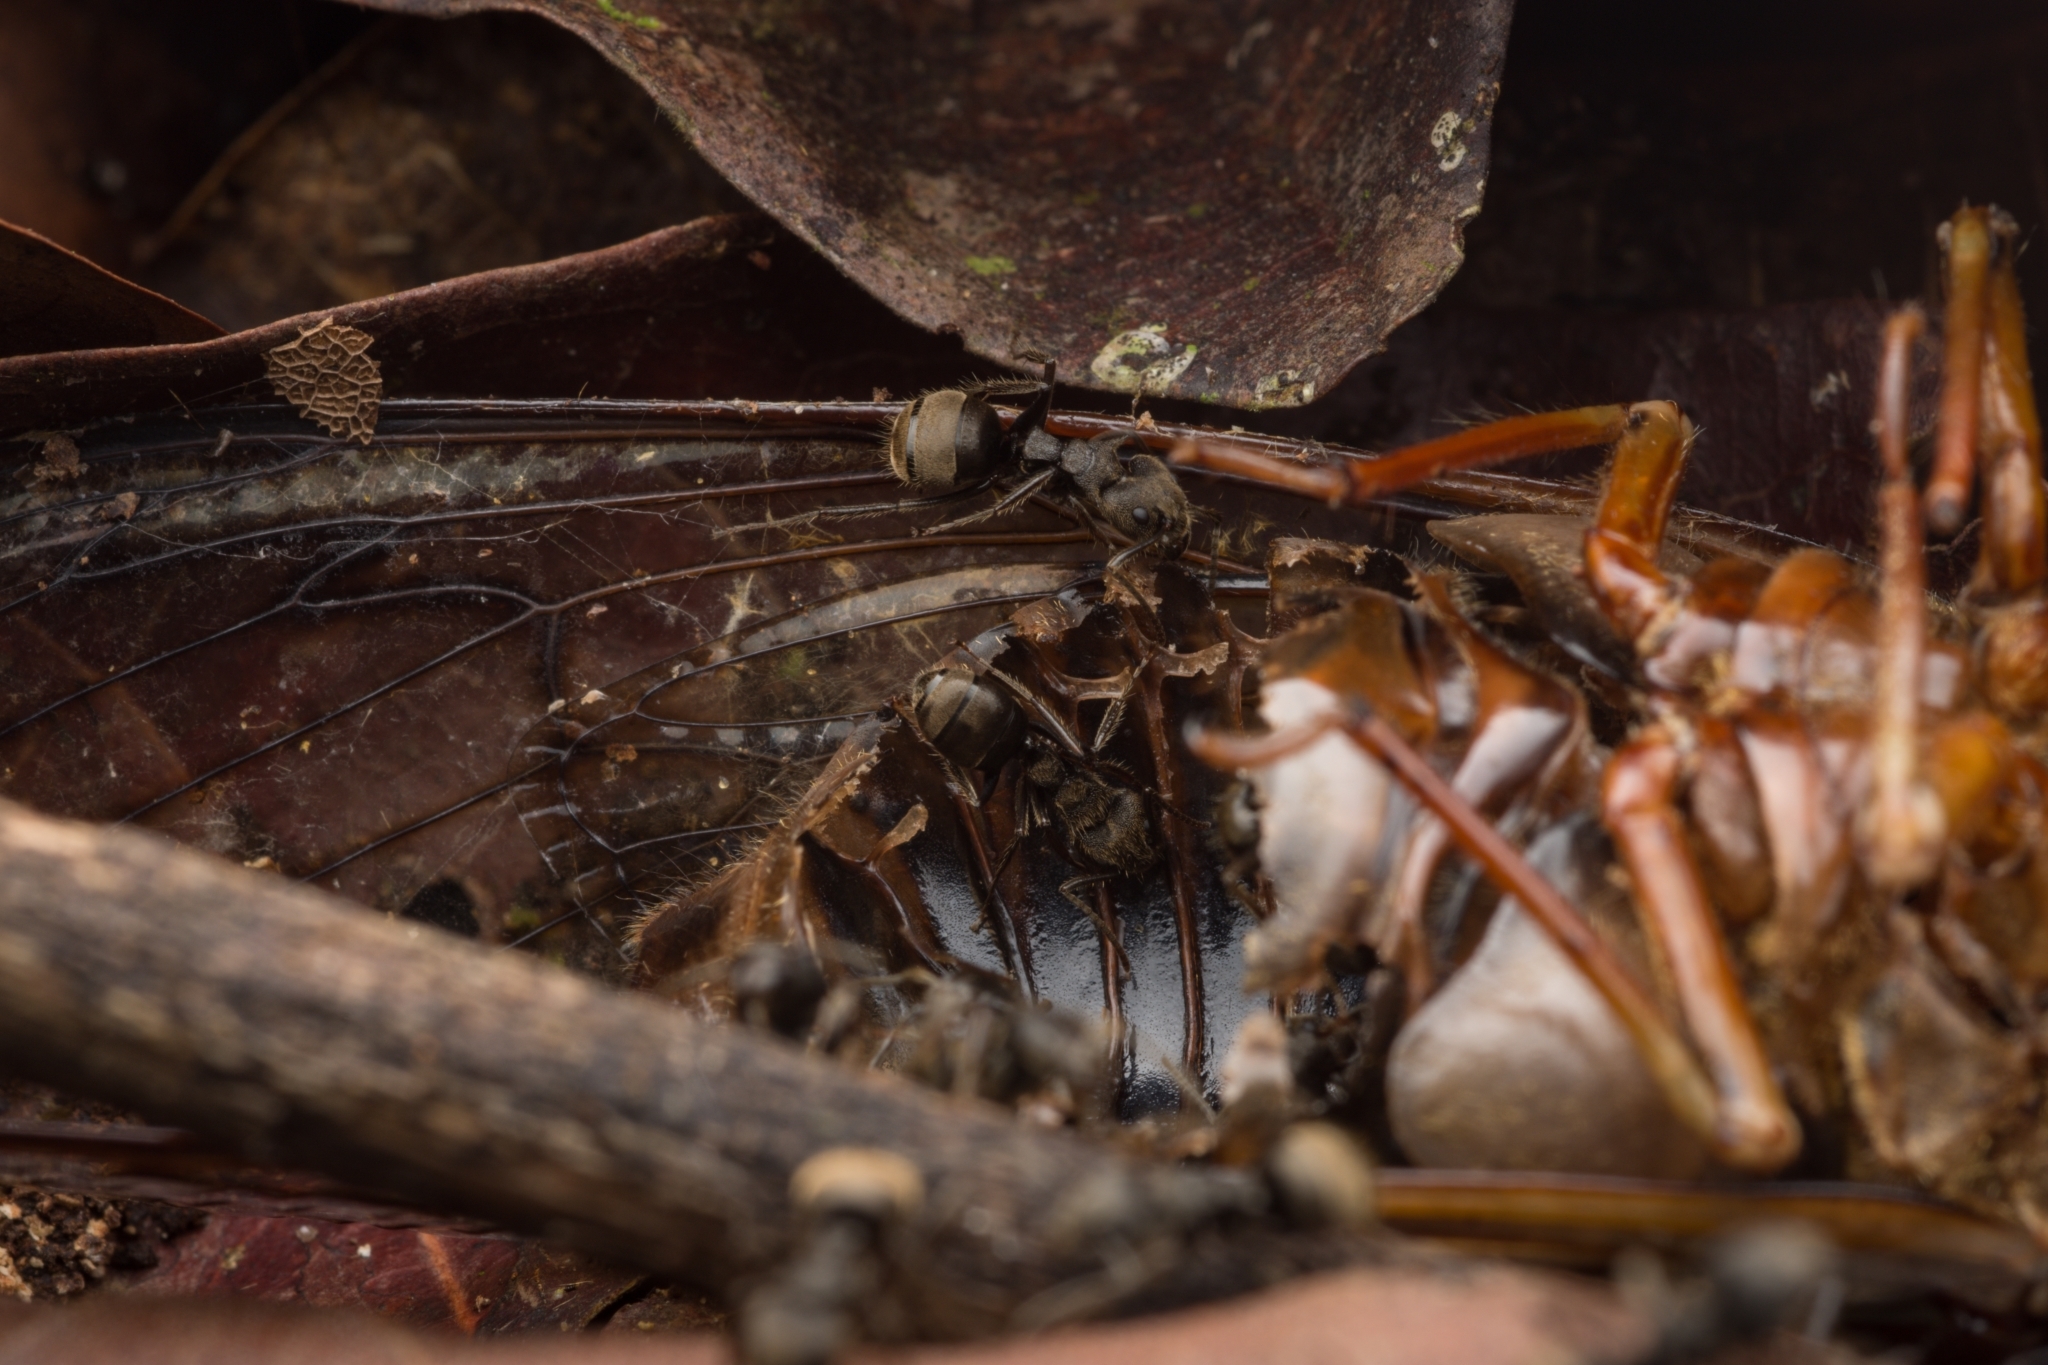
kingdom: Animalia
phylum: Arthropoda
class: Insecta
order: Hymenoptera
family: Formicidae
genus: Dolichoderus
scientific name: Dolichoderus bispinosus
